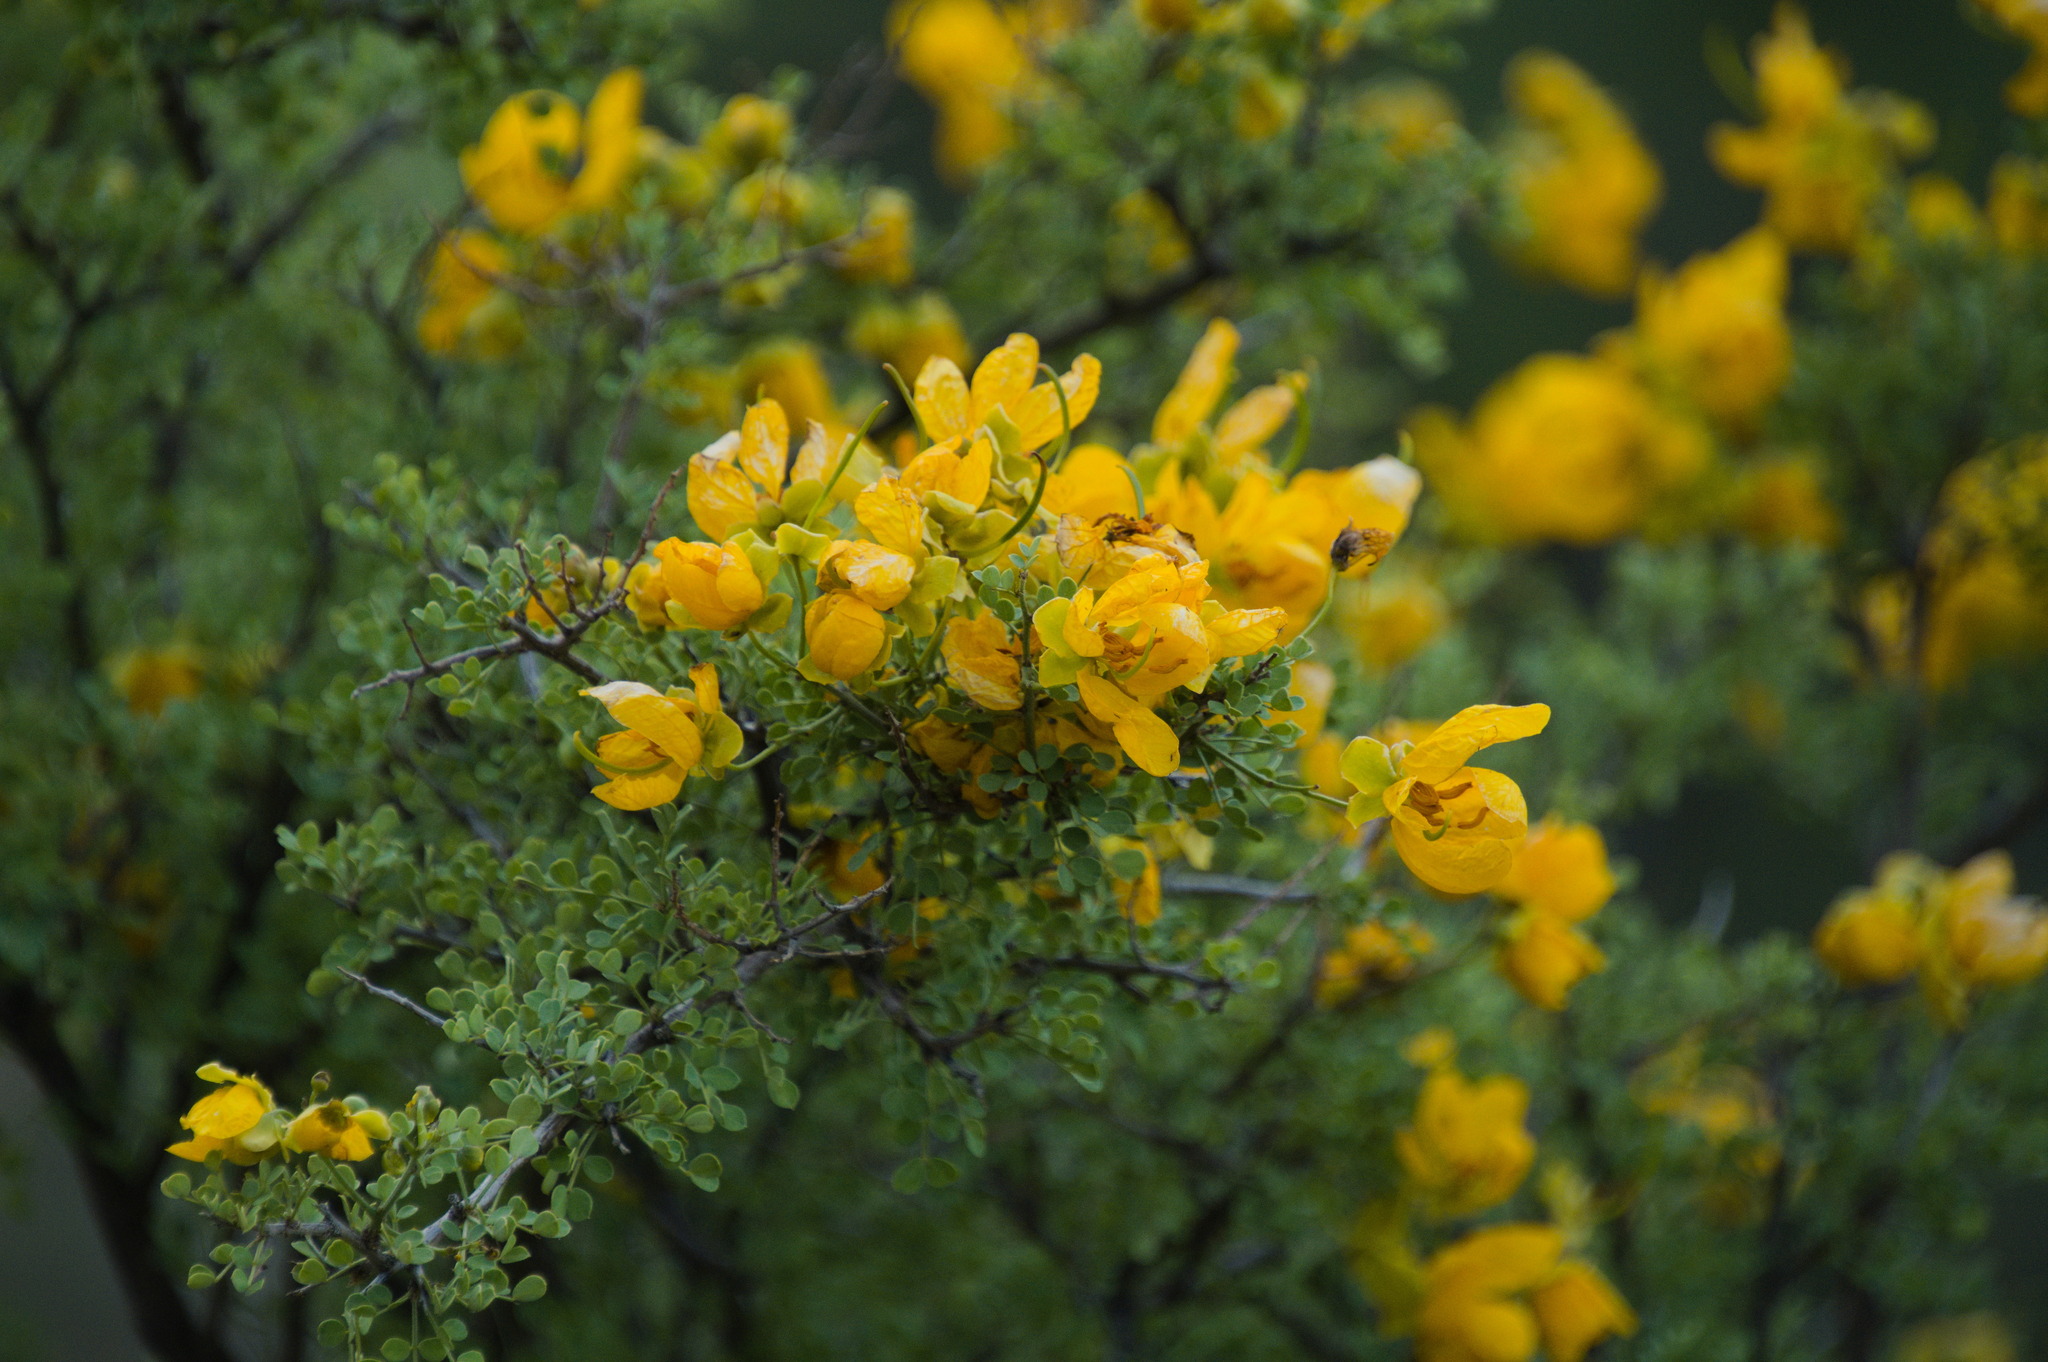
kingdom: Plantae
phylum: Tracheophyta
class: Magnoliopsida
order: Fabales
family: Fabaceae
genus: Senna
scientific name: Senna wislizeni
